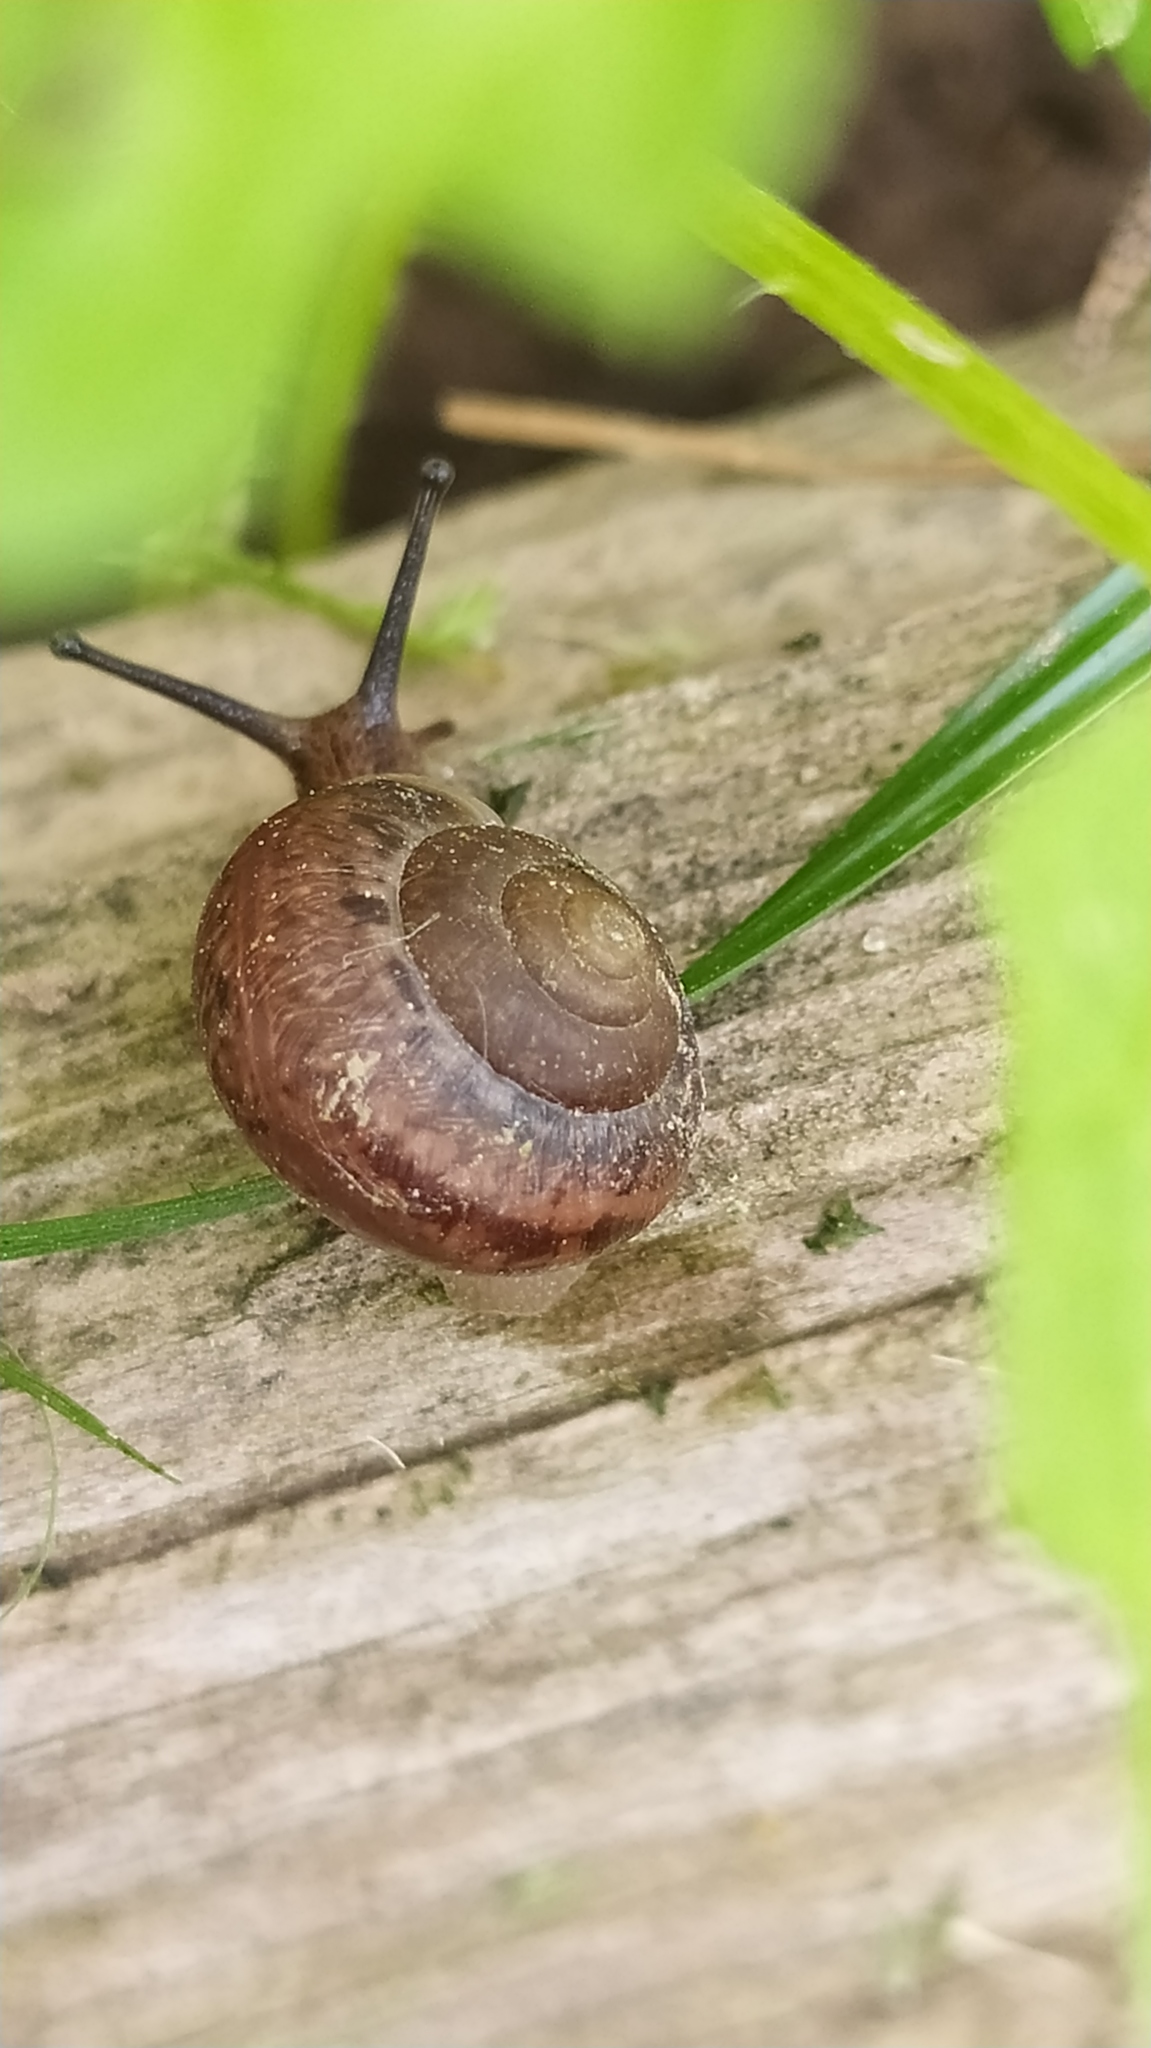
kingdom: Animalia
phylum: Mollusca
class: Gastropoda
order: Stylommatophora
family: Camaenidae
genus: Fruticicola
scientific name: Fruticicola fruticum
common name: Bush snail
